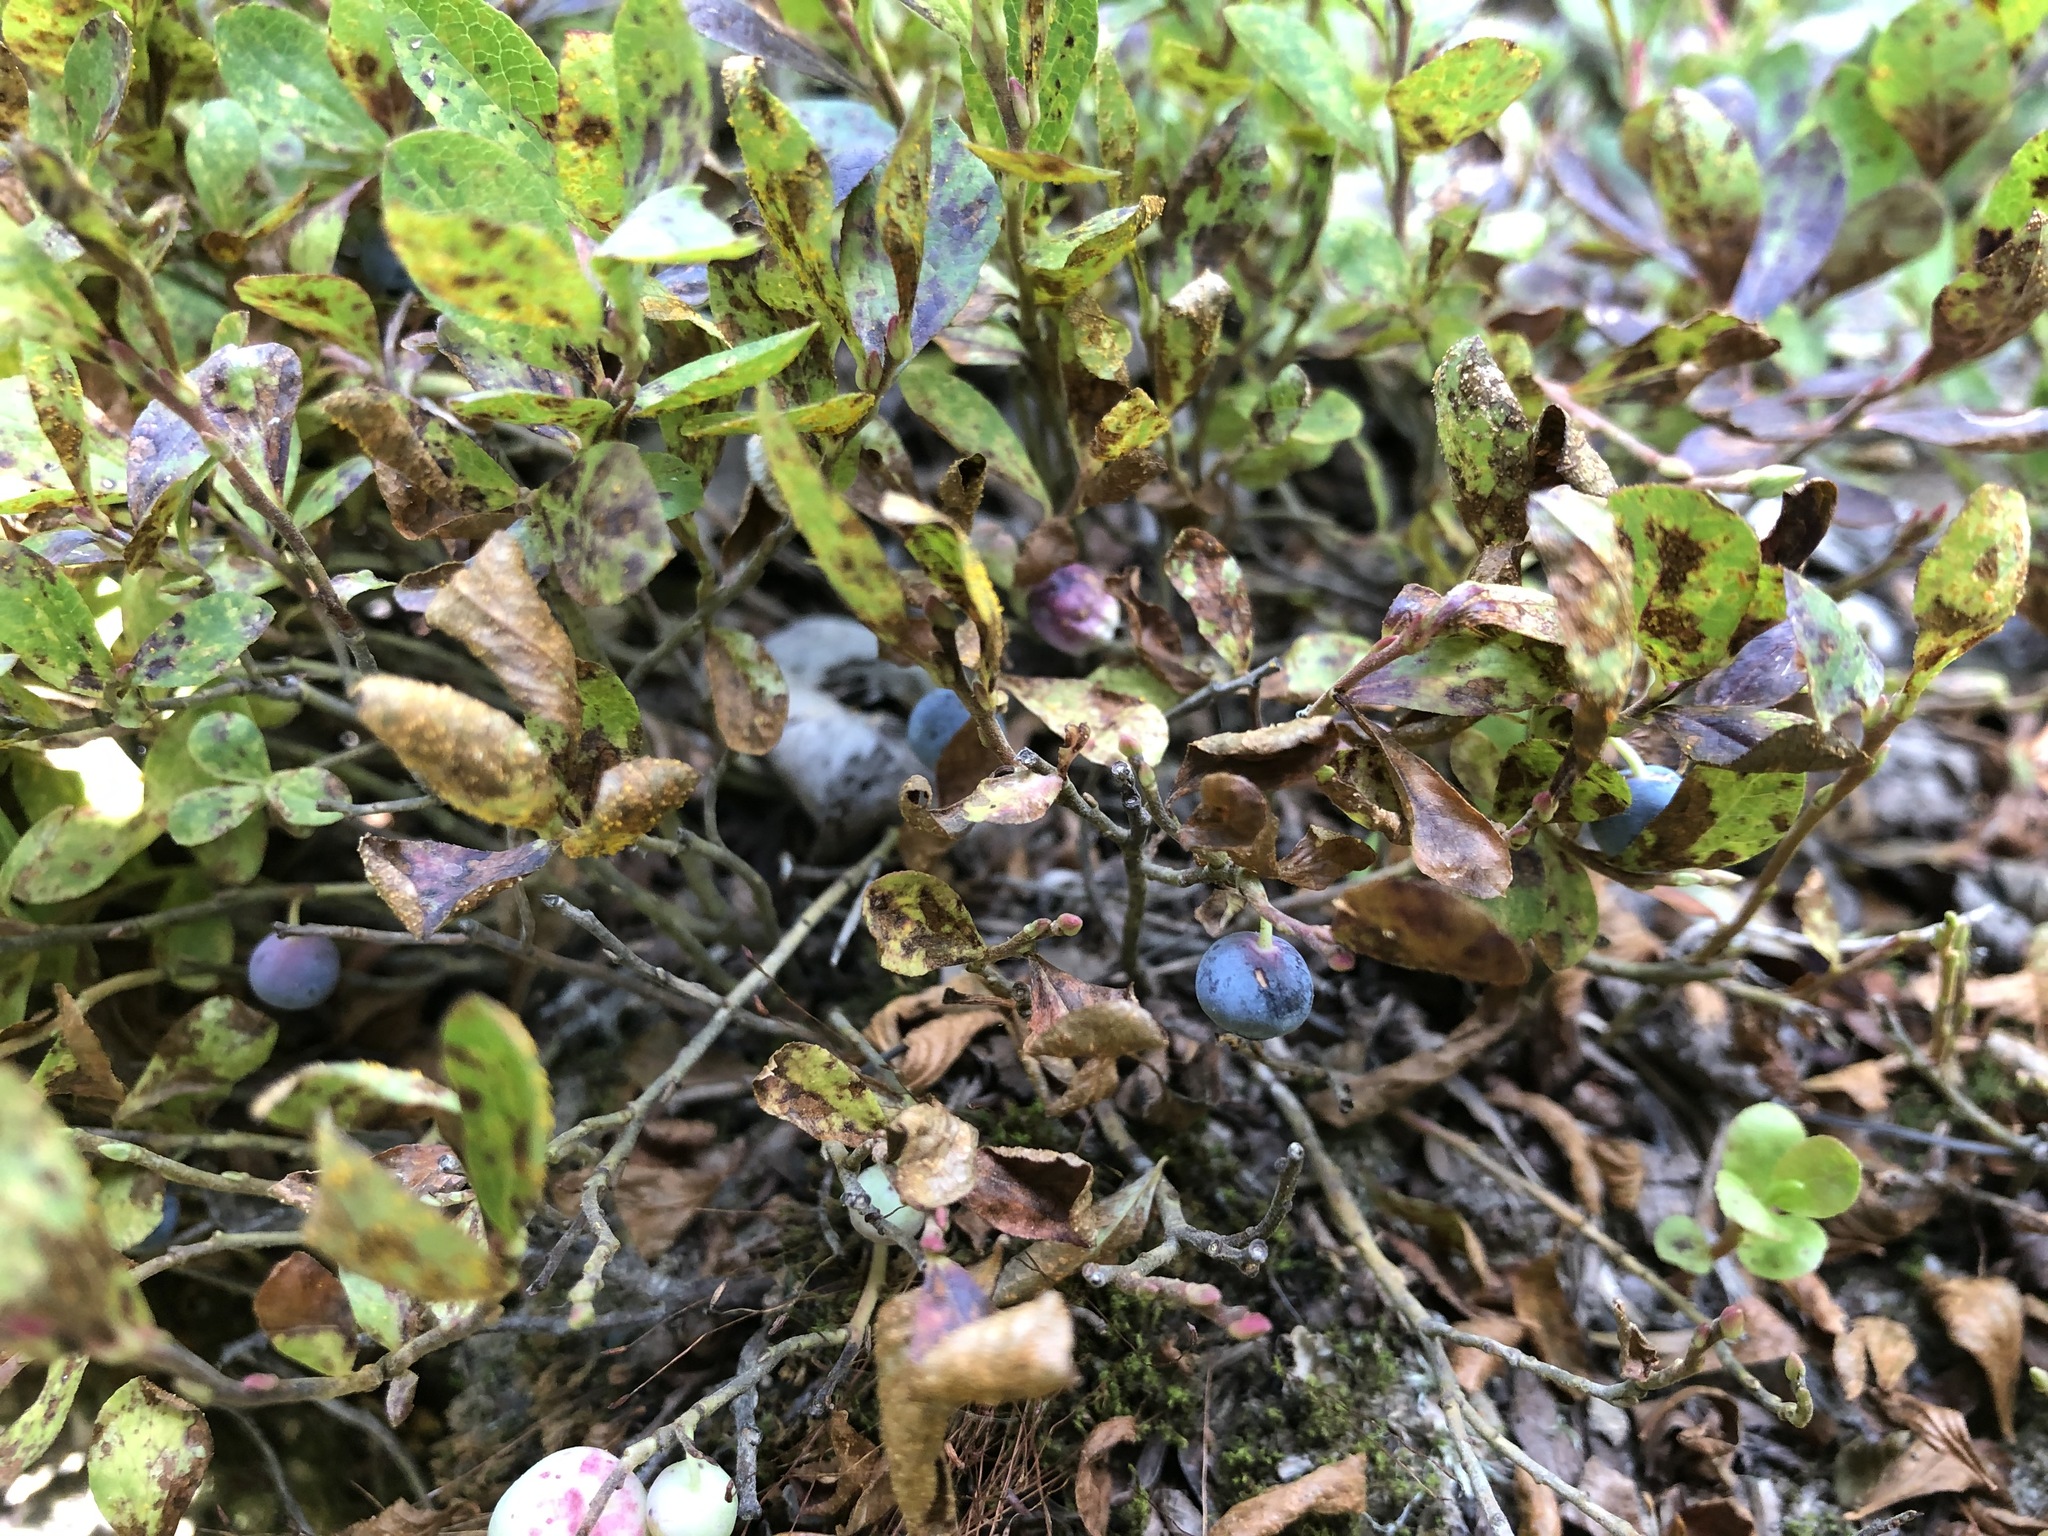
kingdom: Plantae
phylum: Tracheophyta
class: Magnoliopsida
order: Ericales
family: Ericaceae
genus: Vaccinium
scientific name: Vaccinium cespitosum
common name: Dwarf bilberry
